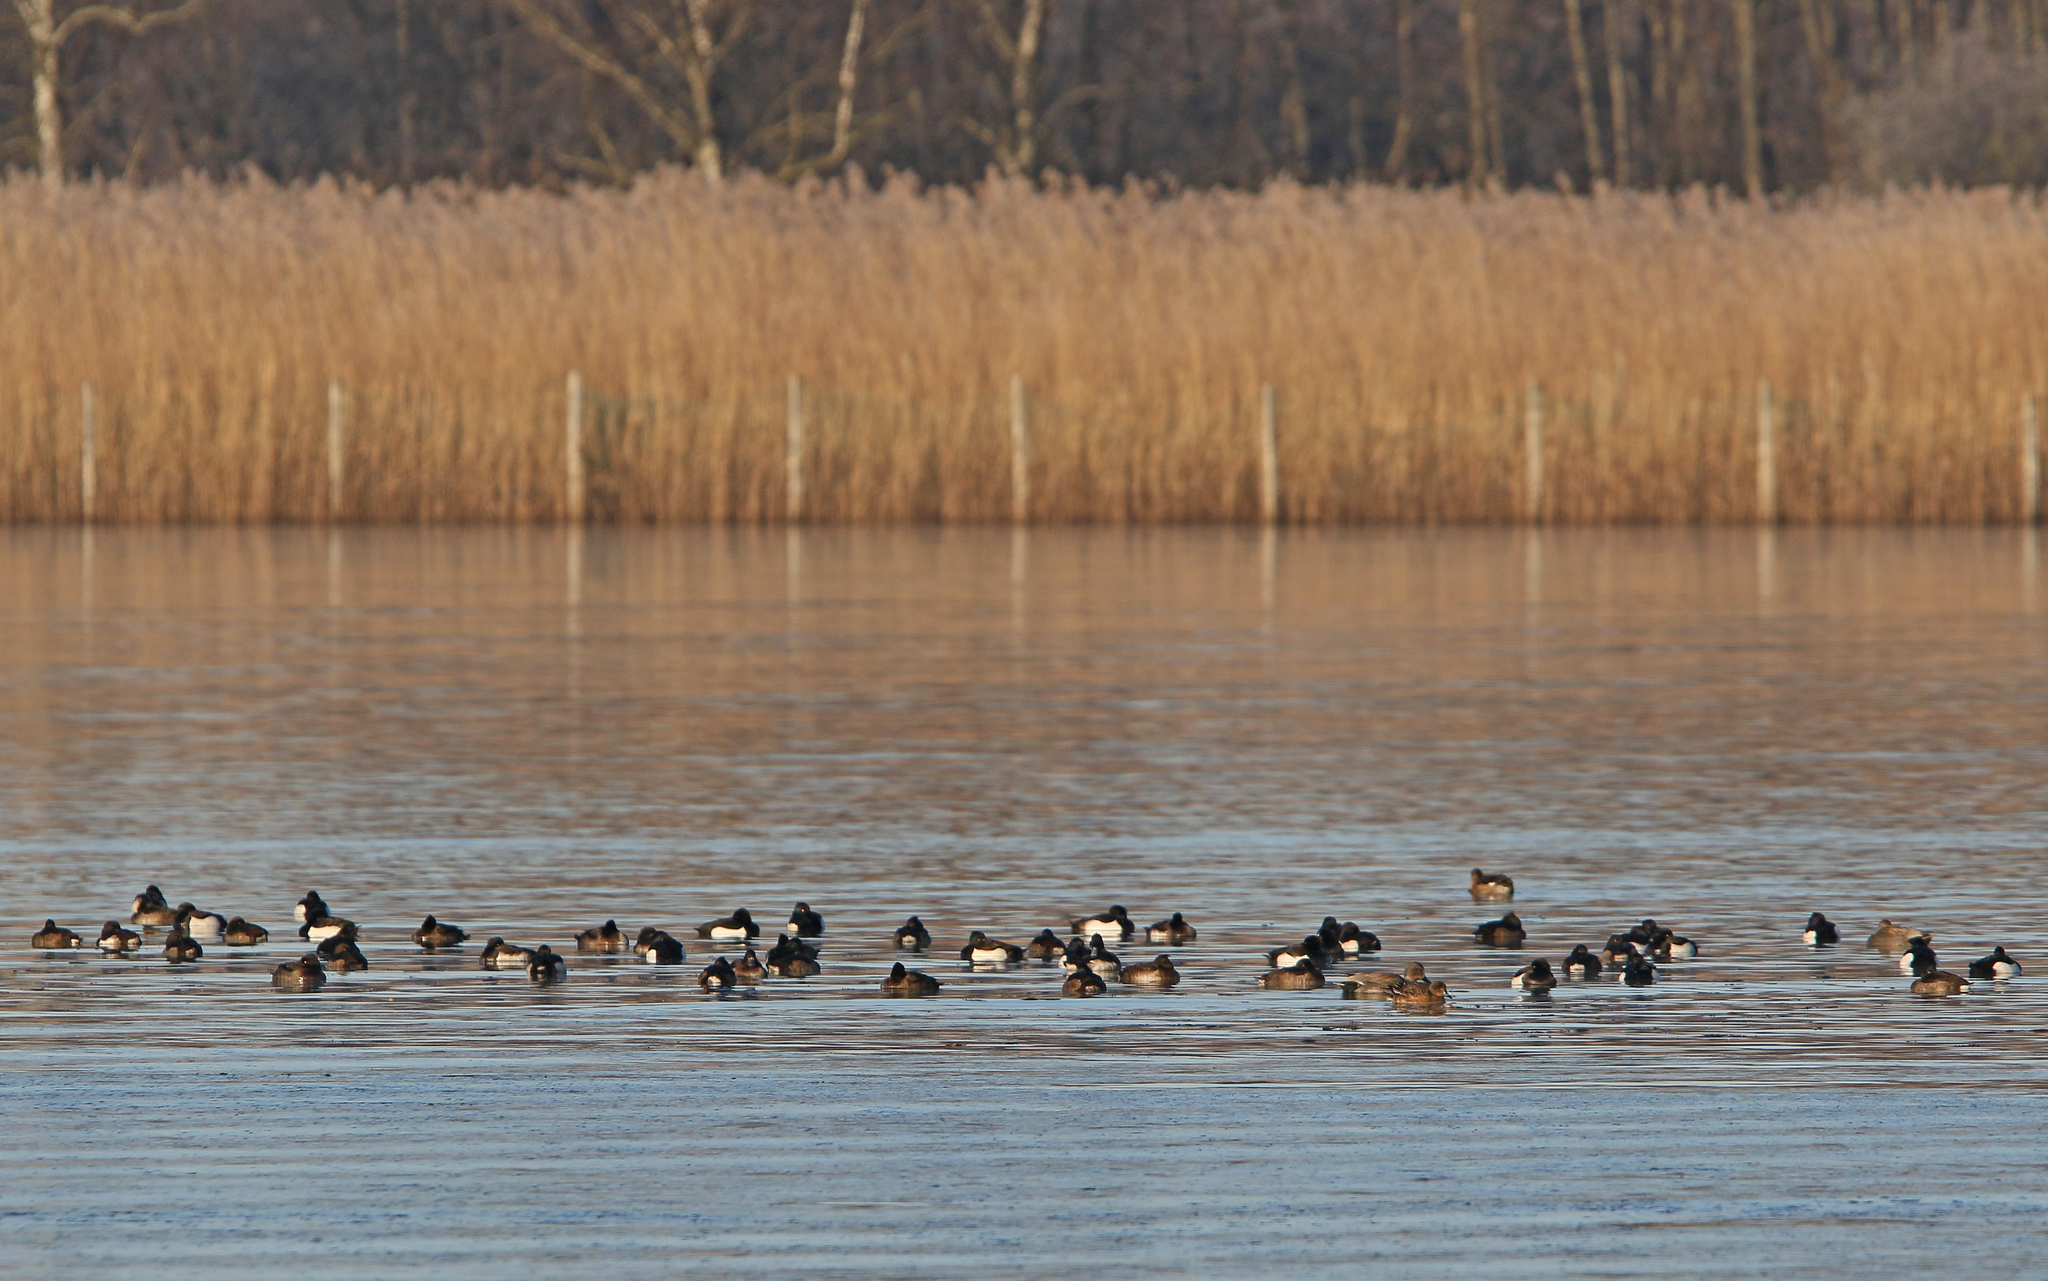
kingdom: Animalia
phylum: Chordata
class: Aves
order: Anseriformes
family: Anatidae
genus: Aythya
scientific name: Aythya fuligula
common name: Tufted duck
